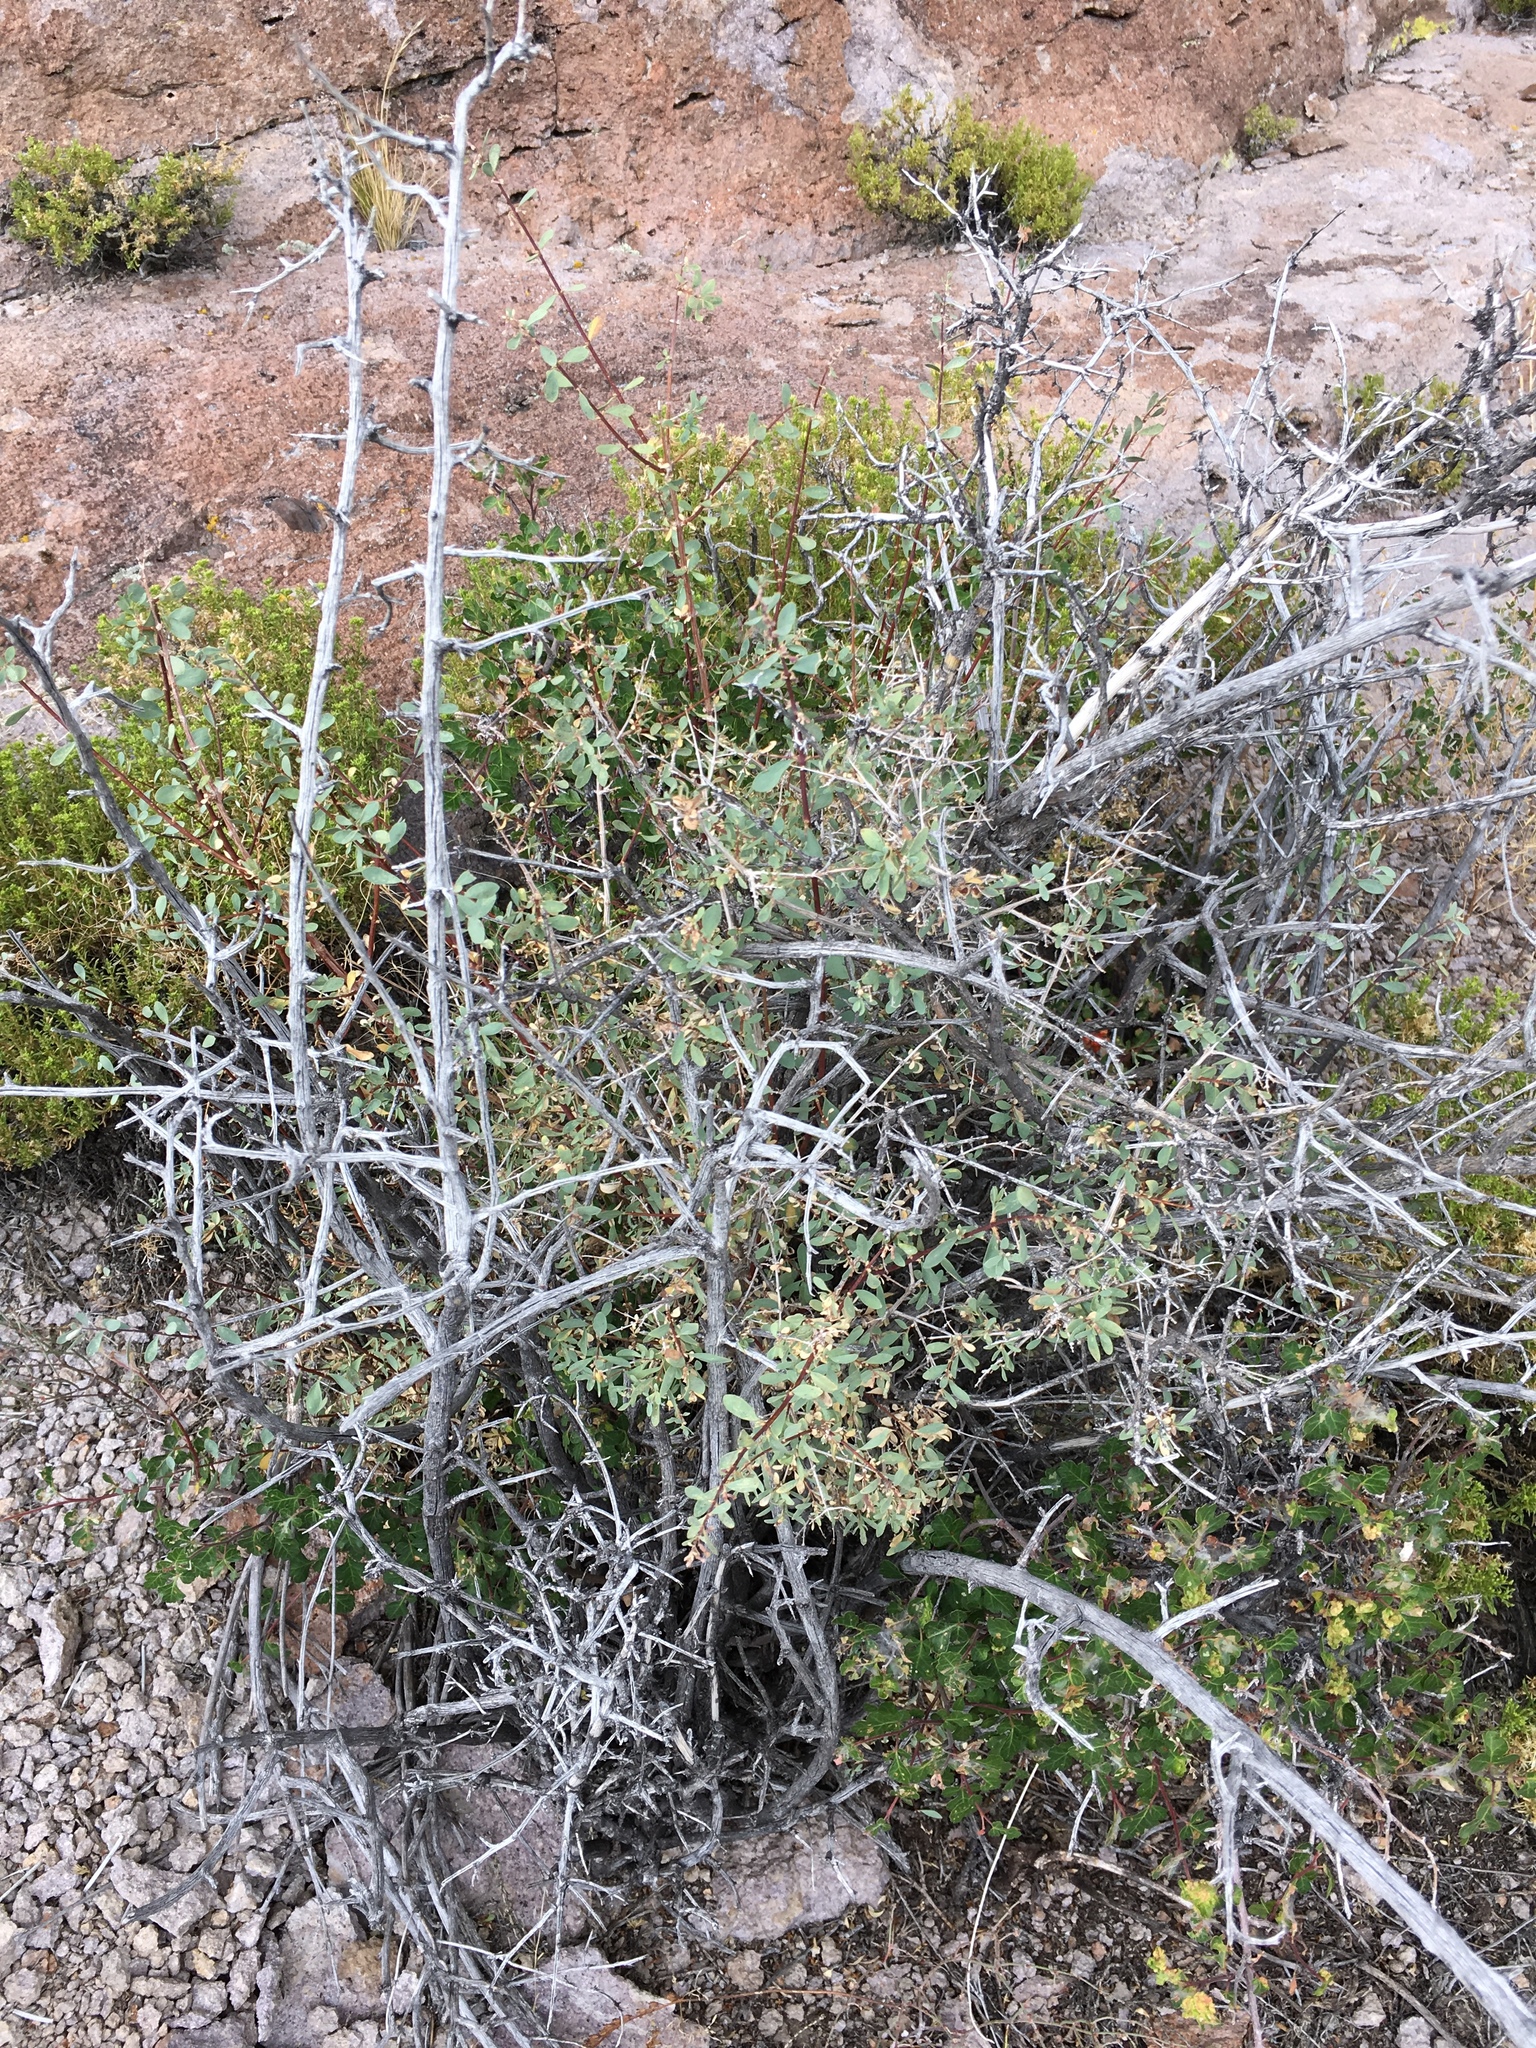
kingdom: Plantae
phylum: Tracheophyta
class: Magnoliopsida
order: Dipsacales
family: Caprifoliaceae
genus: Symphoricarpos
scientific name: Symphoricarpos longiflorus
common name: Fragrant snowberry
